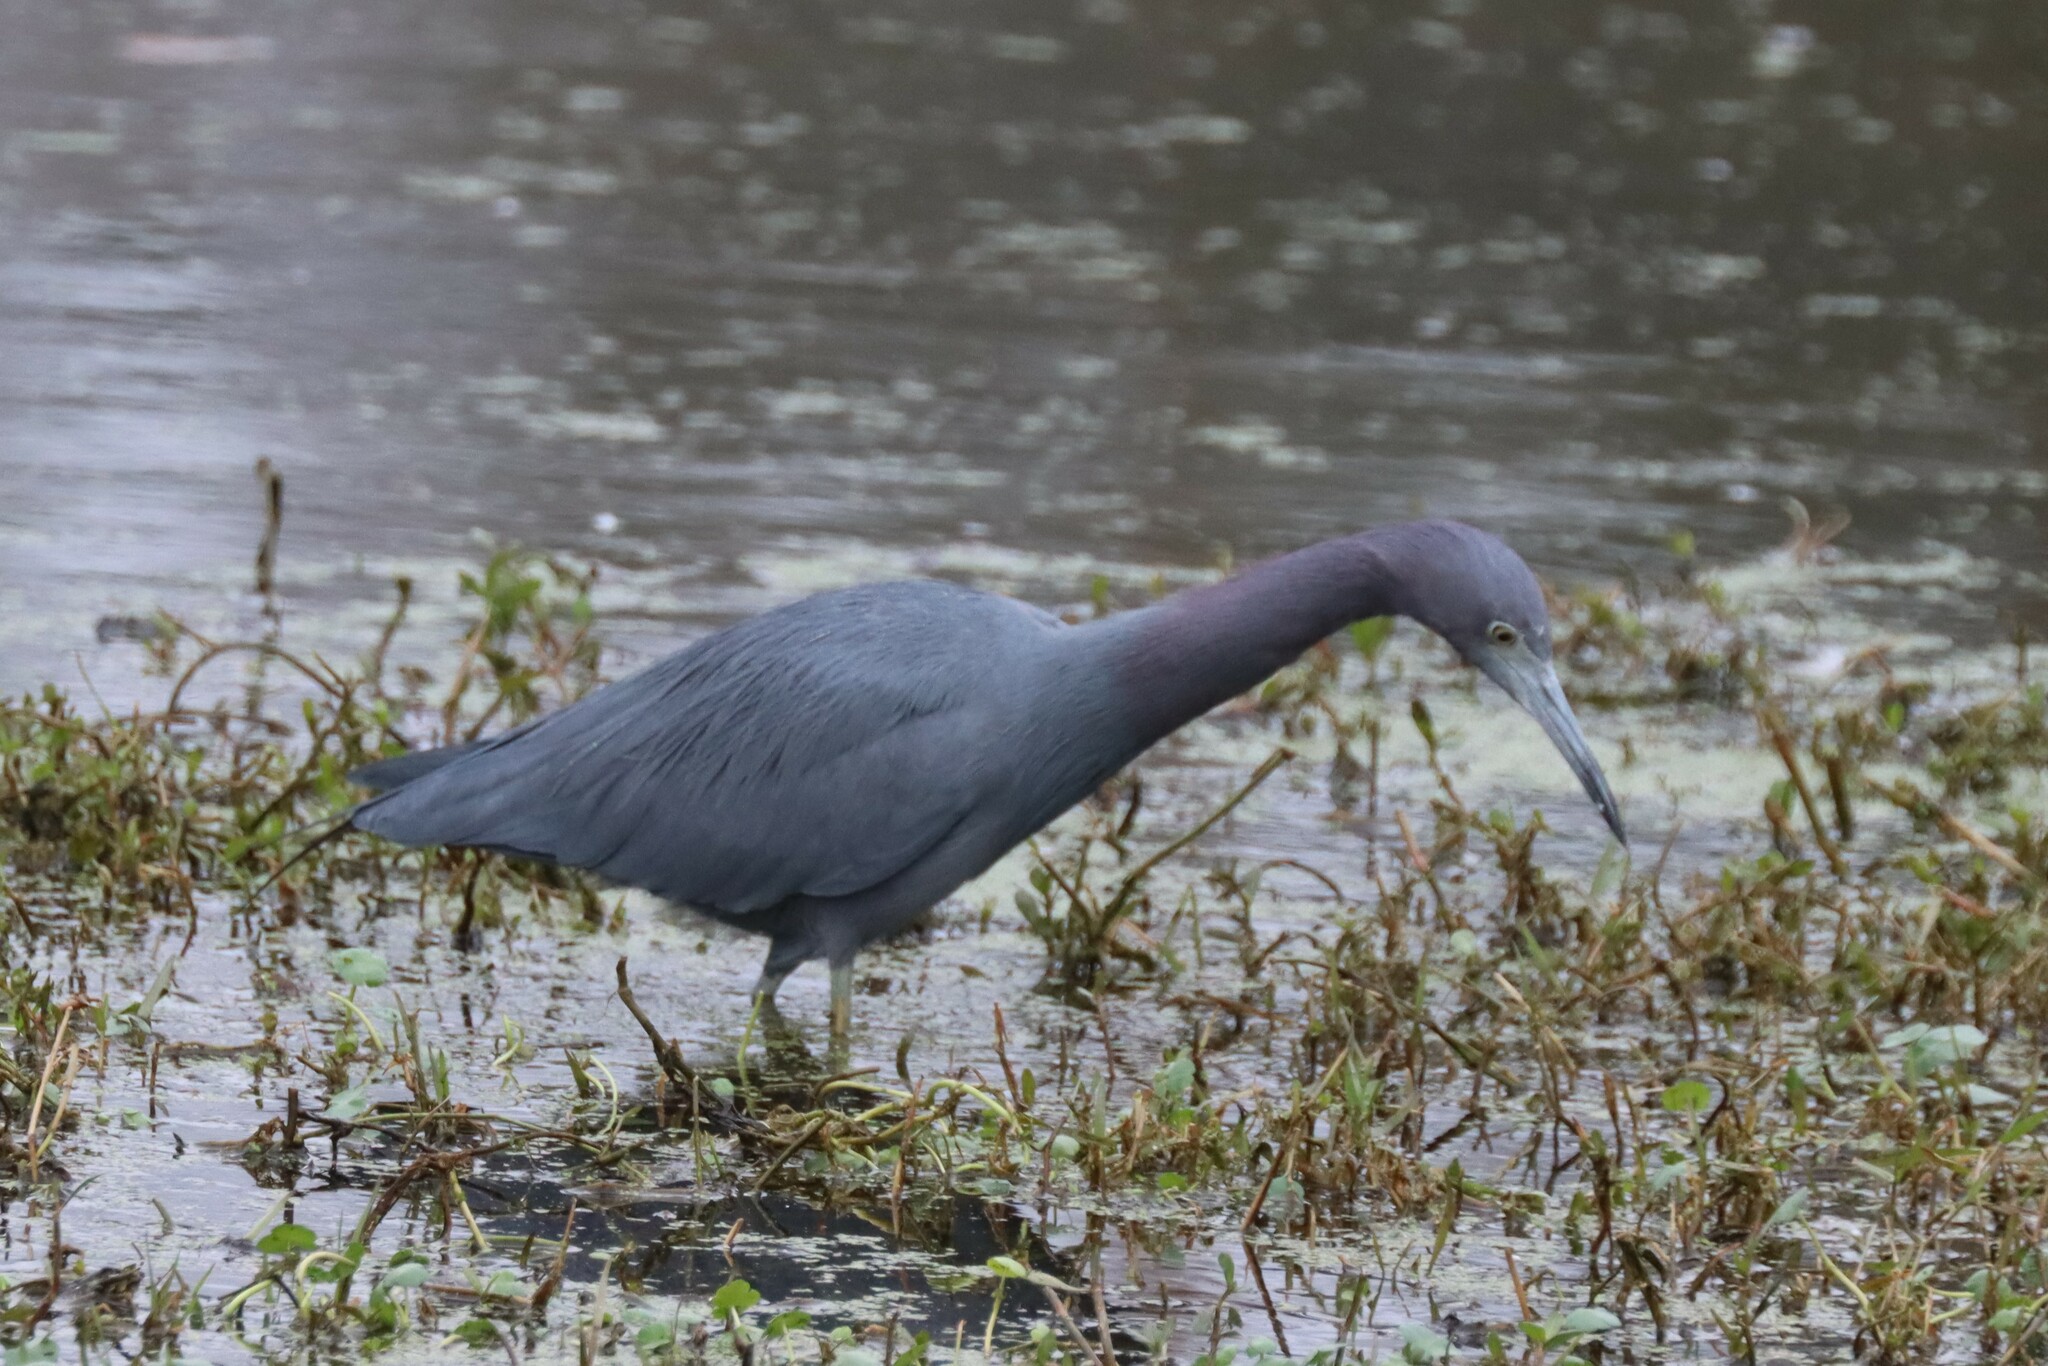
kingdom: Animalia
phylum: Chordata
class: Aves
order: Pelecaniformes
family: Ardeidae
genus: Egretta
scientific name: Egretta caerulea
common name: Little blue heron
